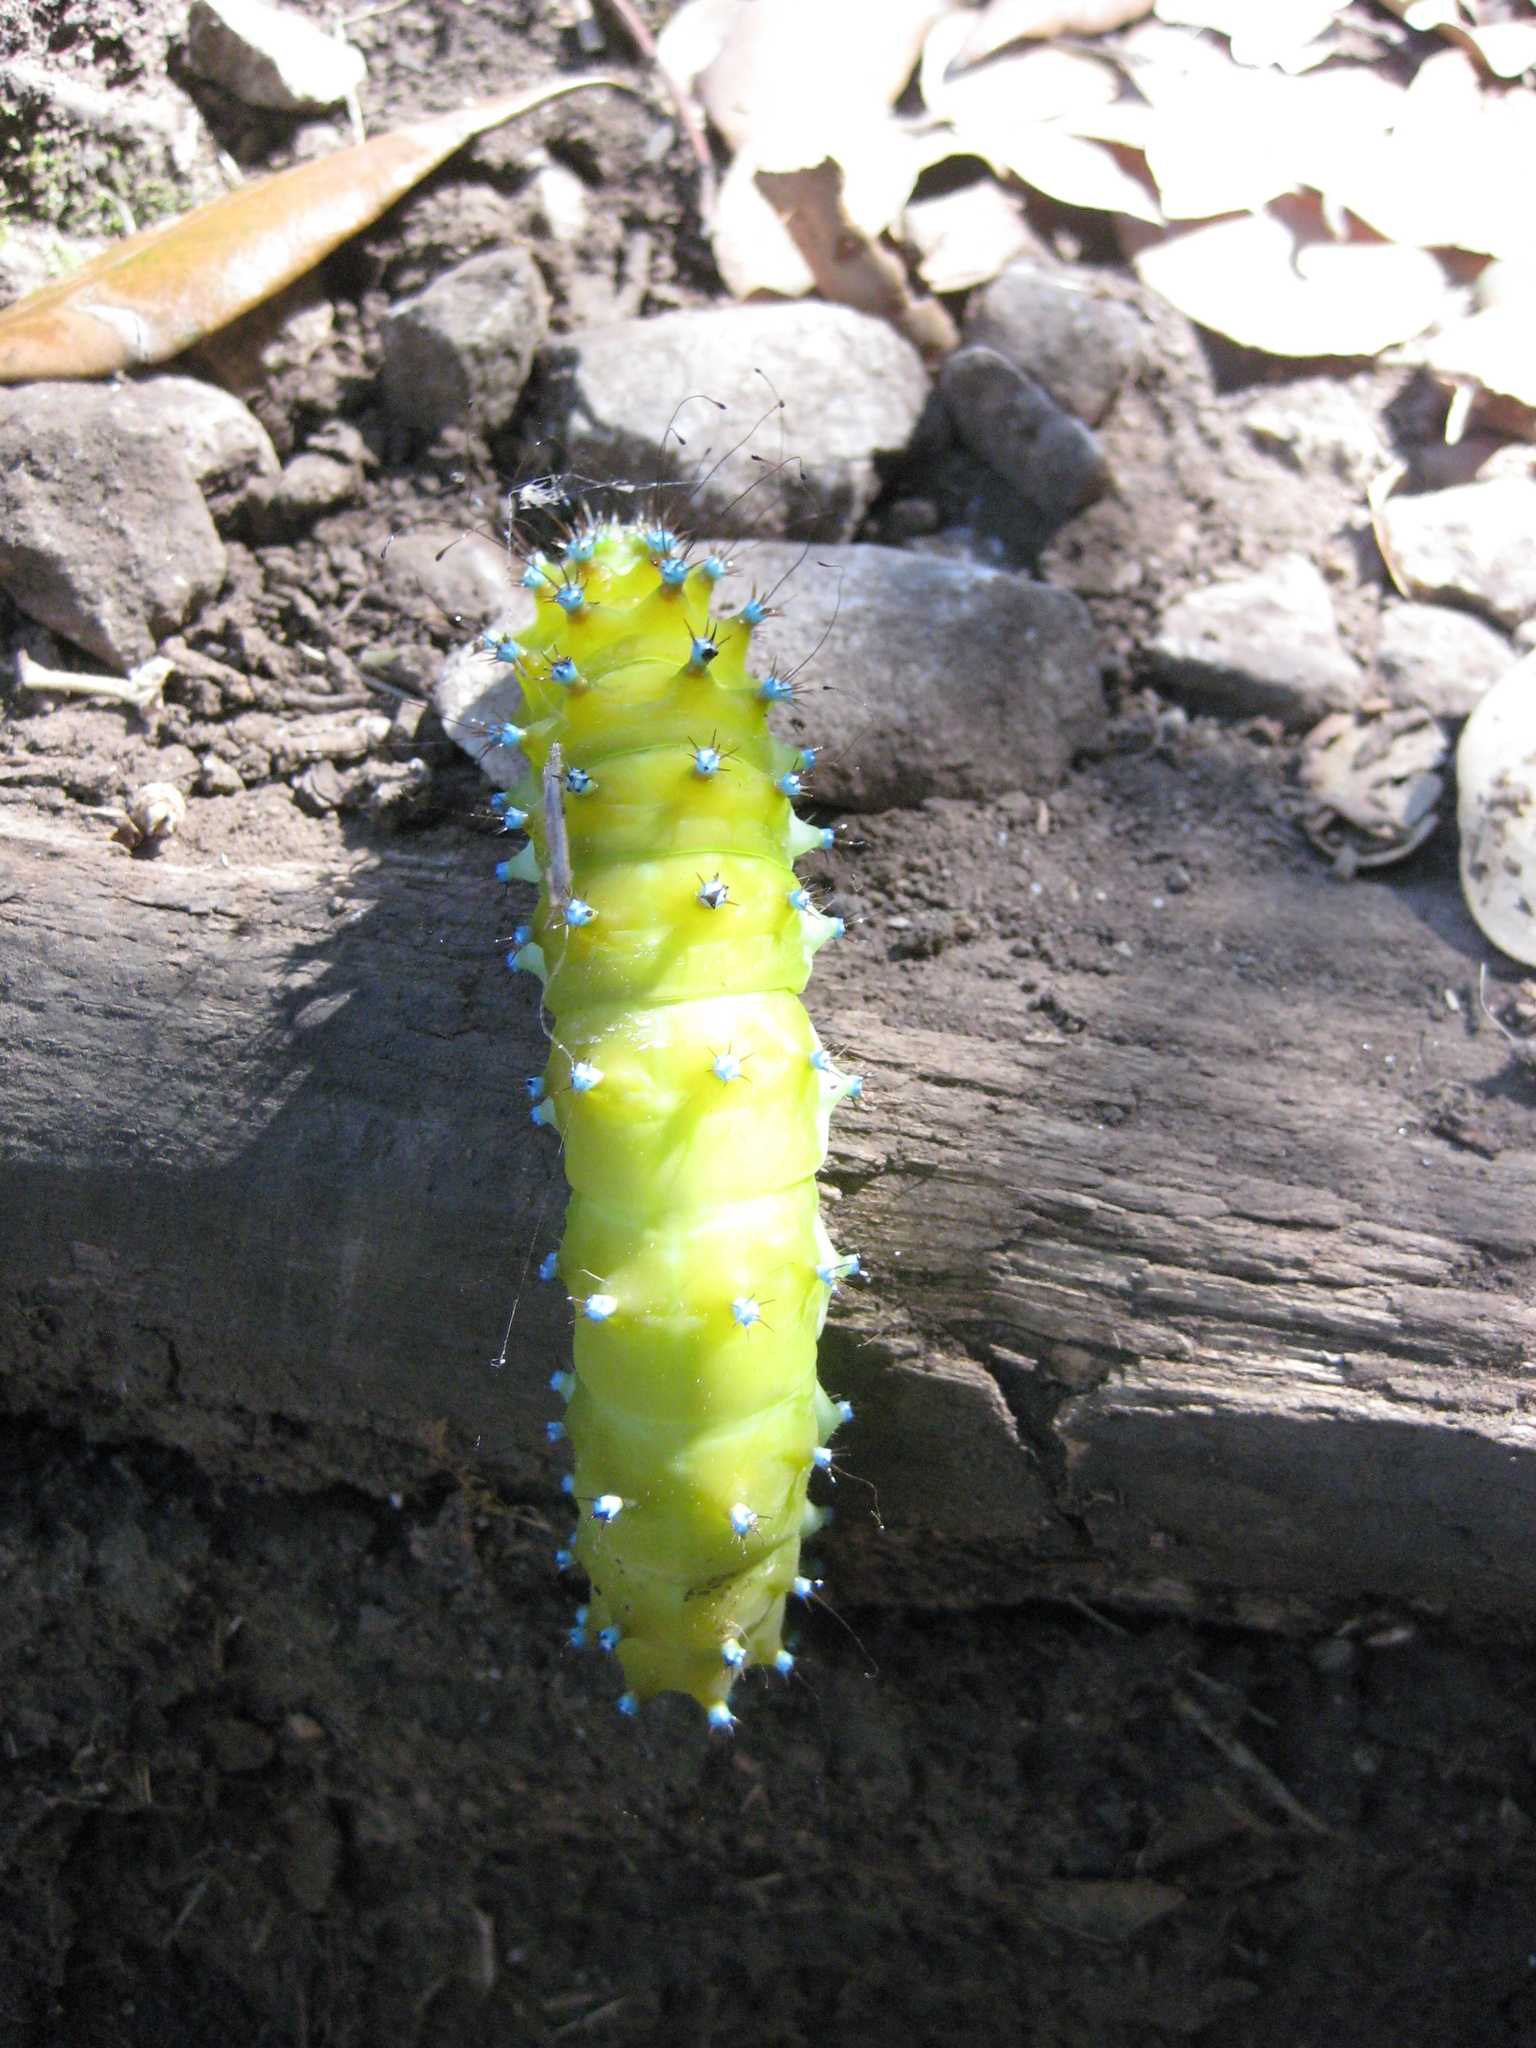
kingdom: Animalia
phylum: Arthropoda
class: Insecta
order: Lepidoptera
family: Saturniidae
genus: Saturnia
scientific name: Saturnia pyri
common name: Great peacock moth
